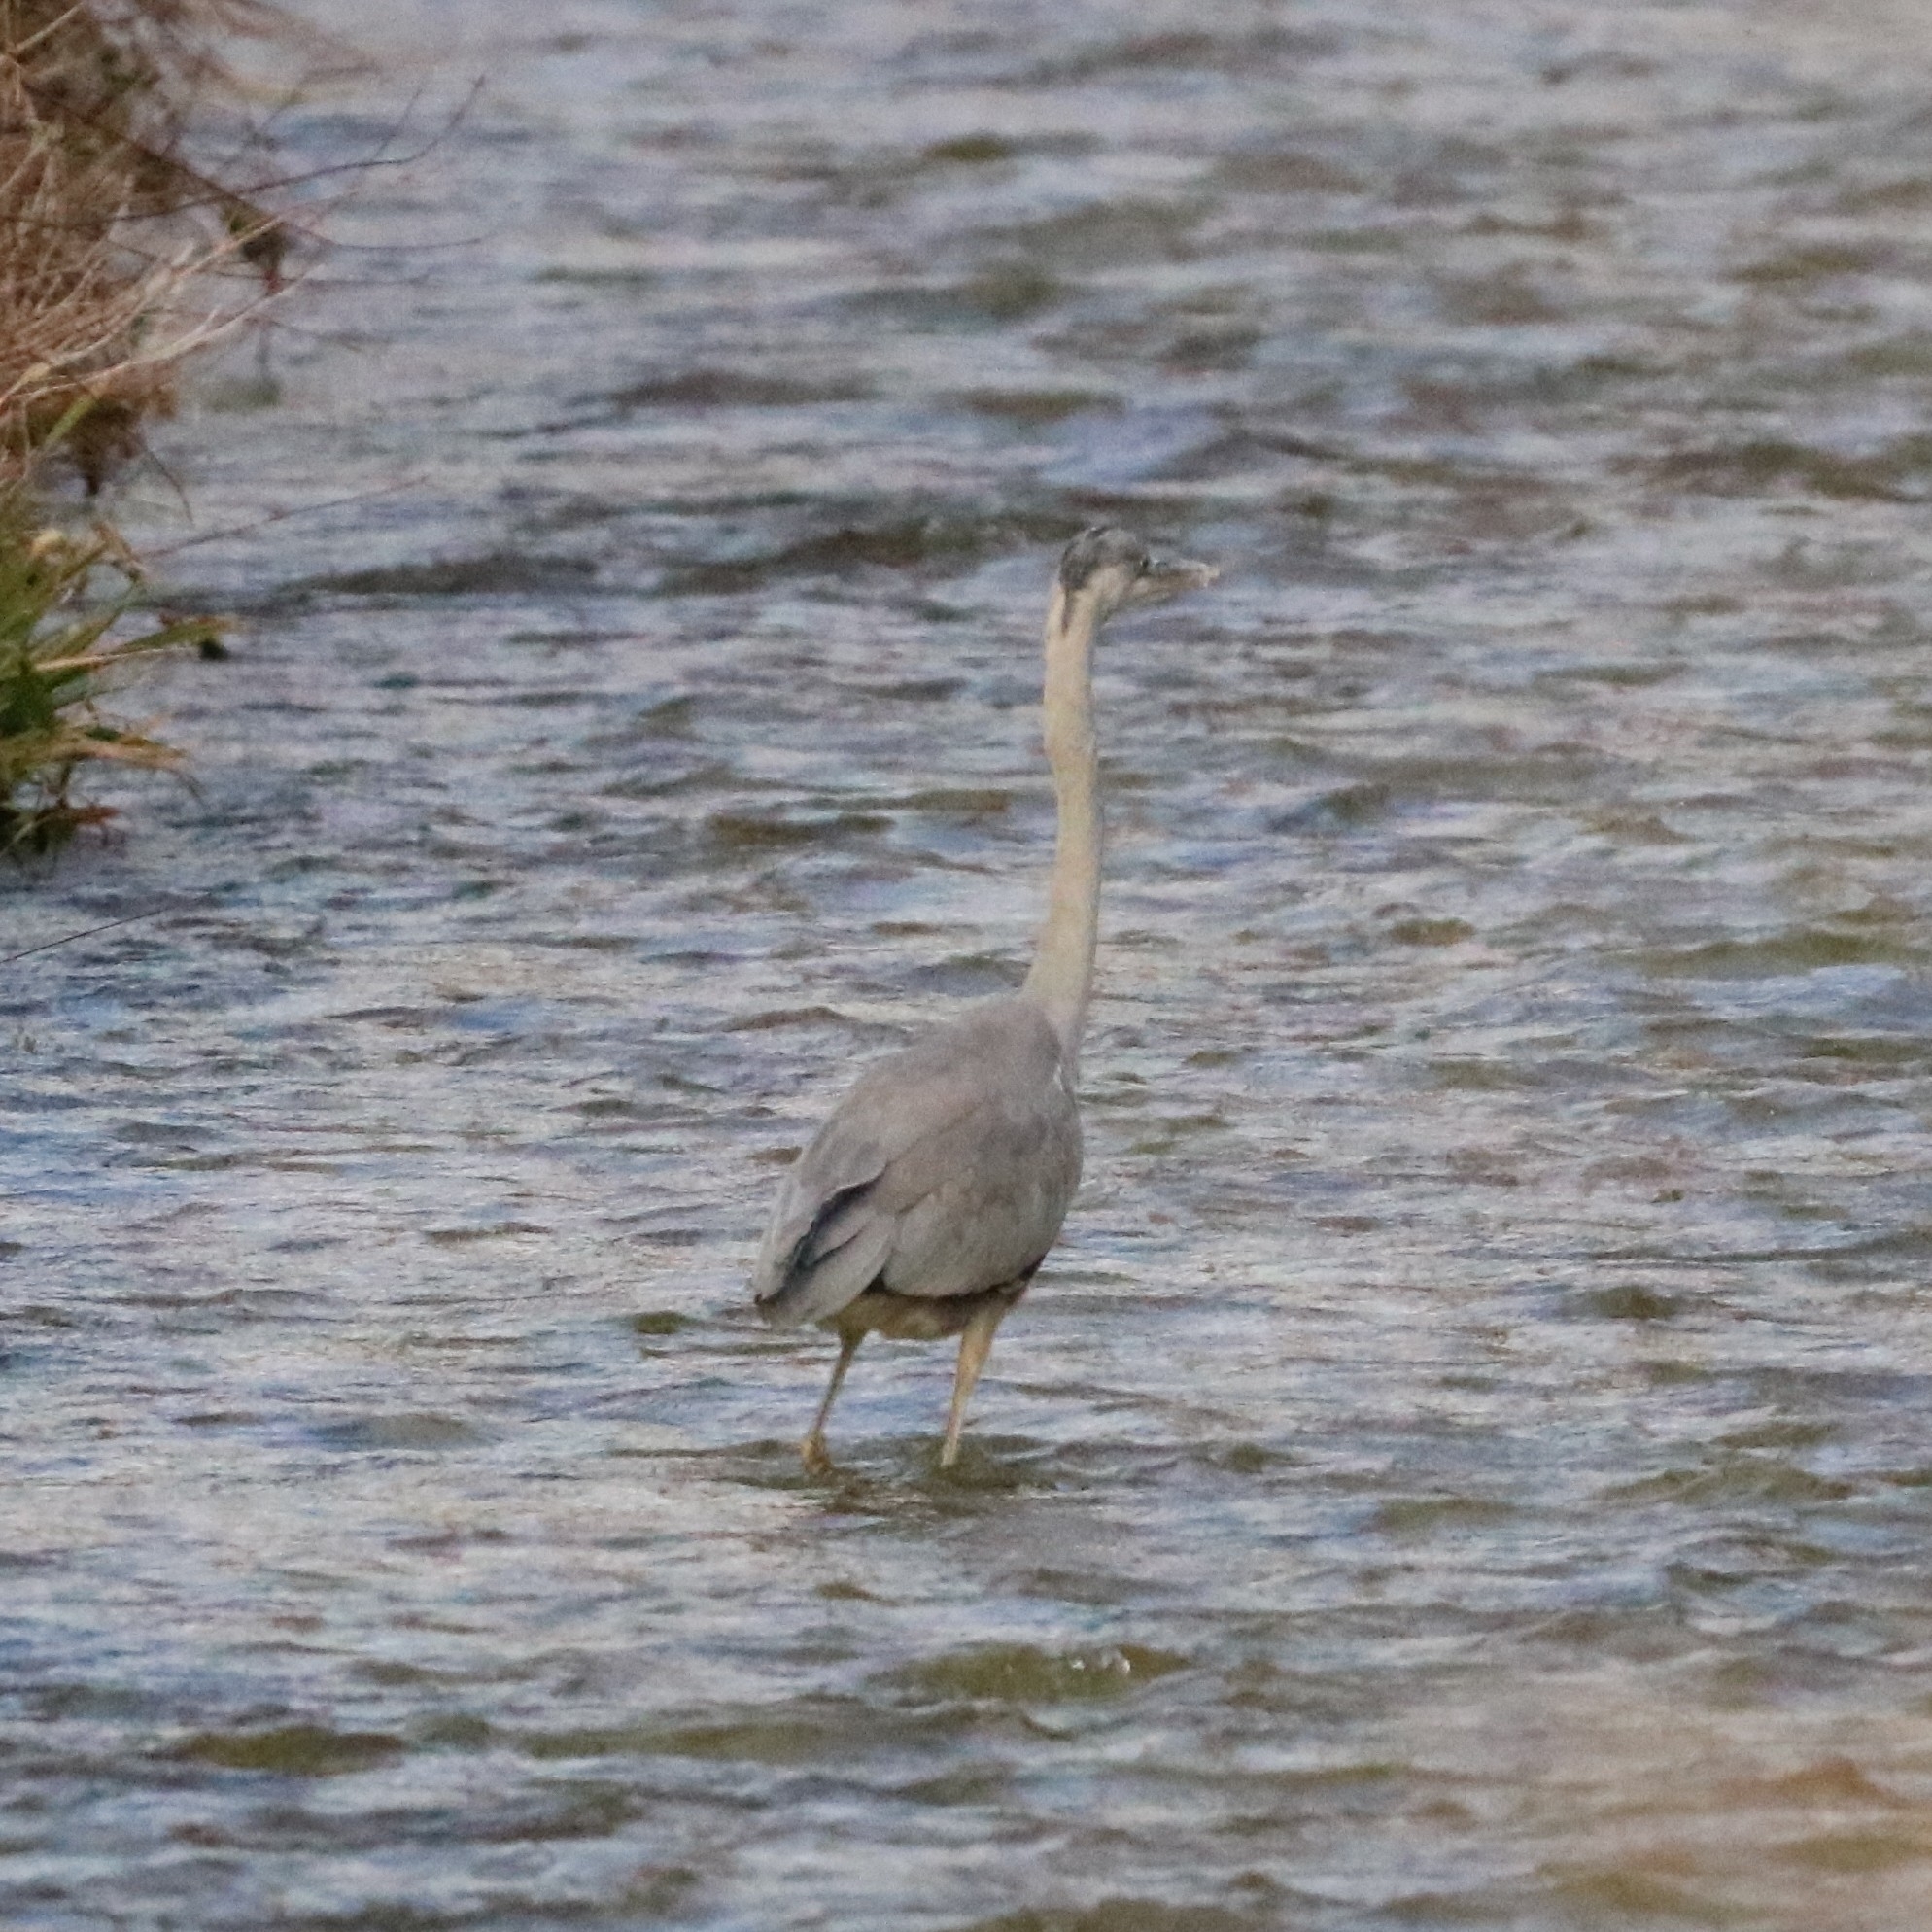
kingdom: Animalia
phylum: Chordata
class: Aves
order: Pelecaniformes
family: Ardeidae
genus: Ardea
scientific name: Ardea cinerea
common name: Grey heron
